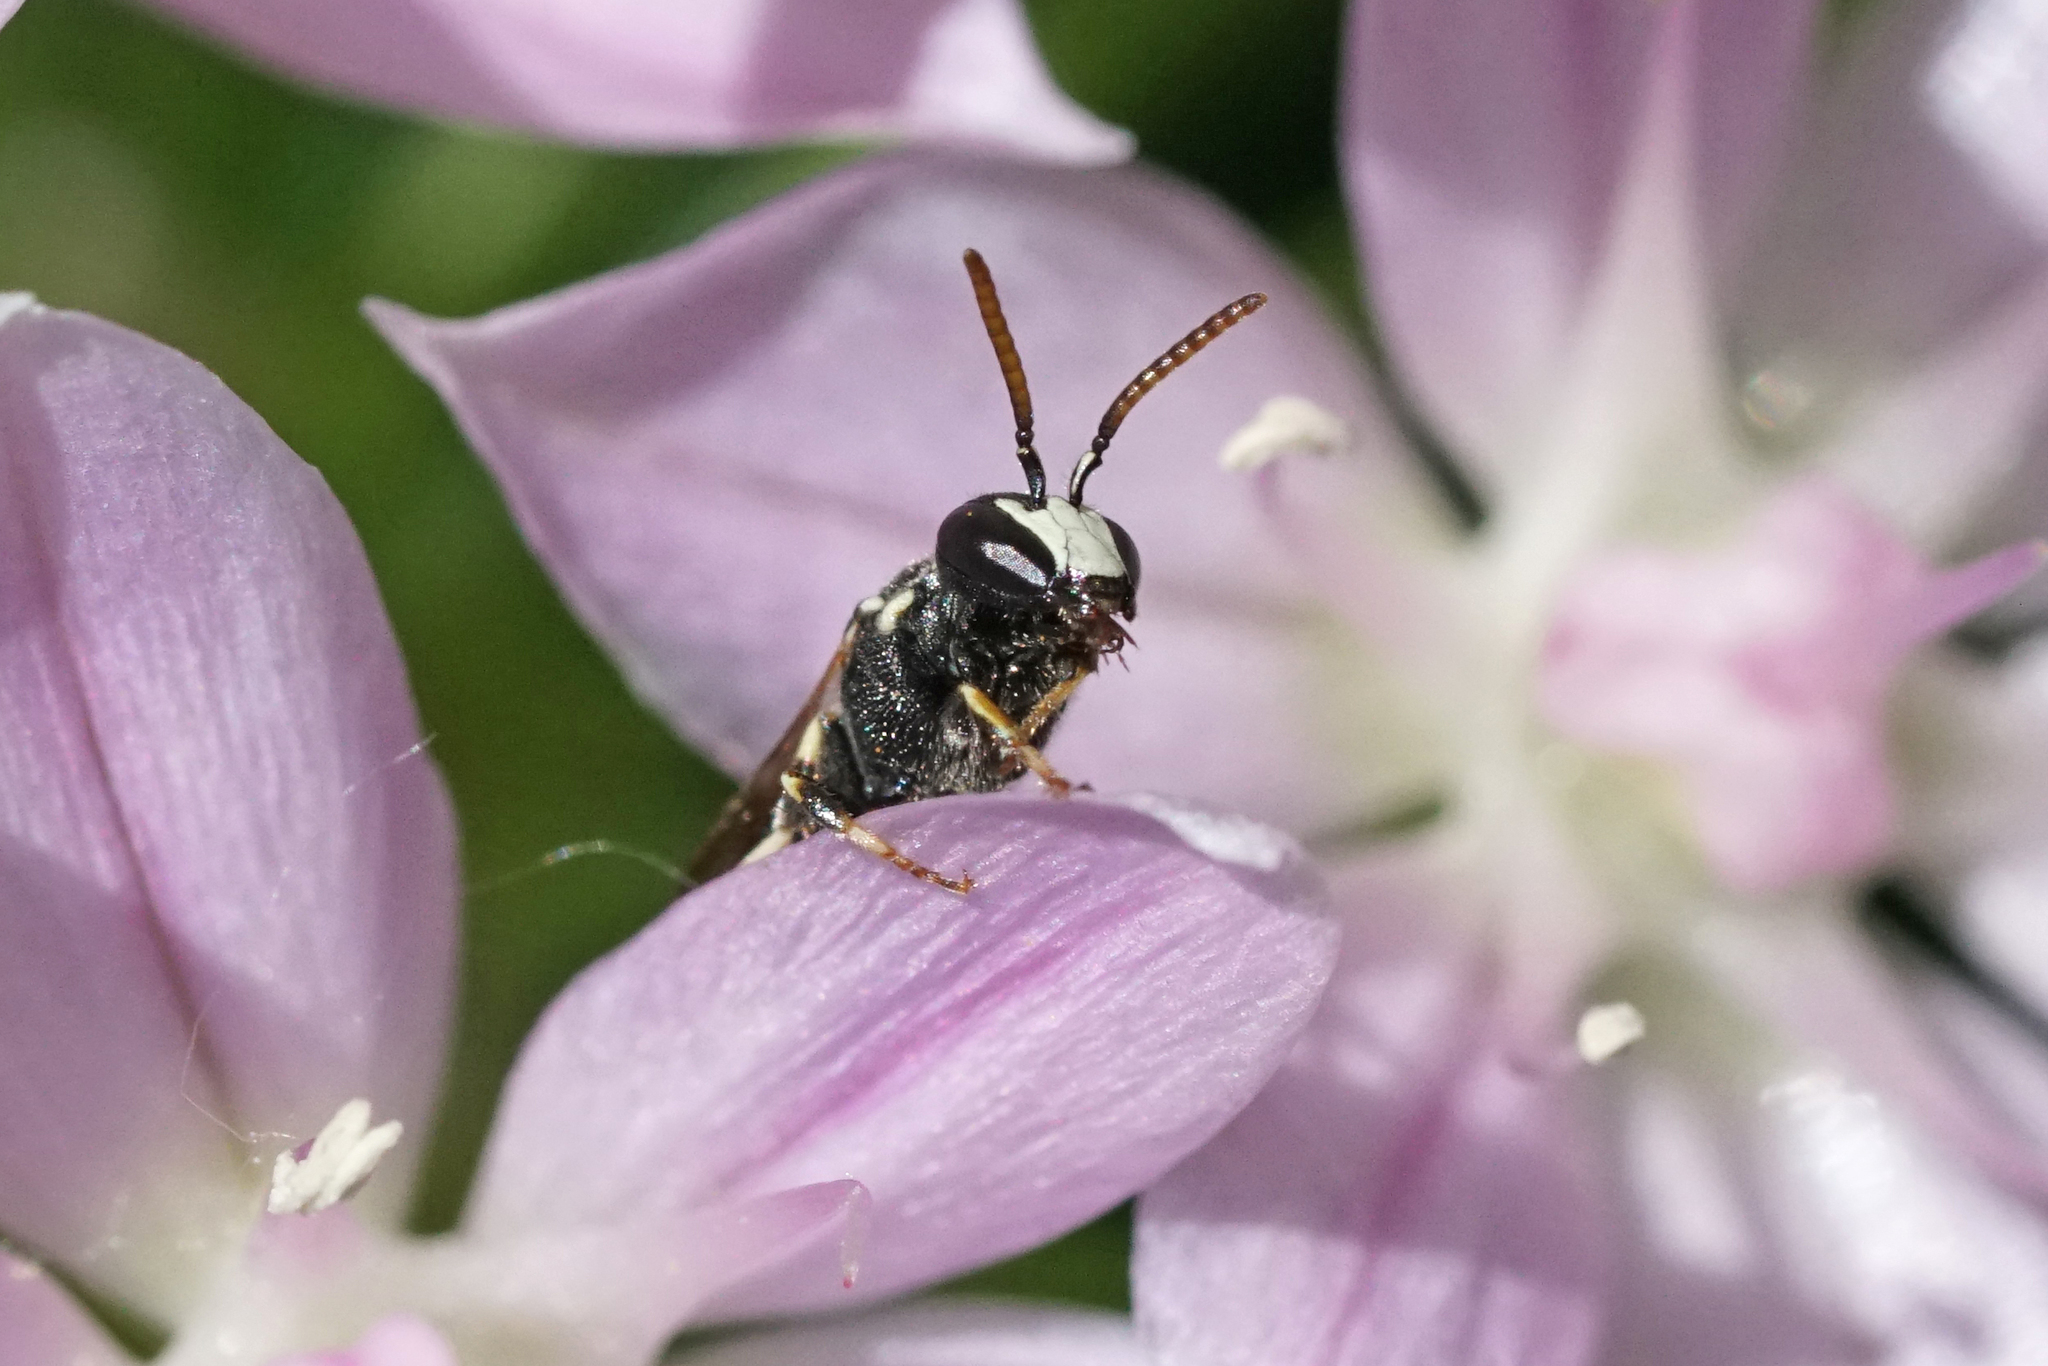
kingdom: Animalia
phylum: Arthropoda
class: Insecta
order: Hymenoptera
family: Colletidae
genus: Hylaeus
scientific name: Hylaeus leptocephalus
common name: Slender-faced masked bee
